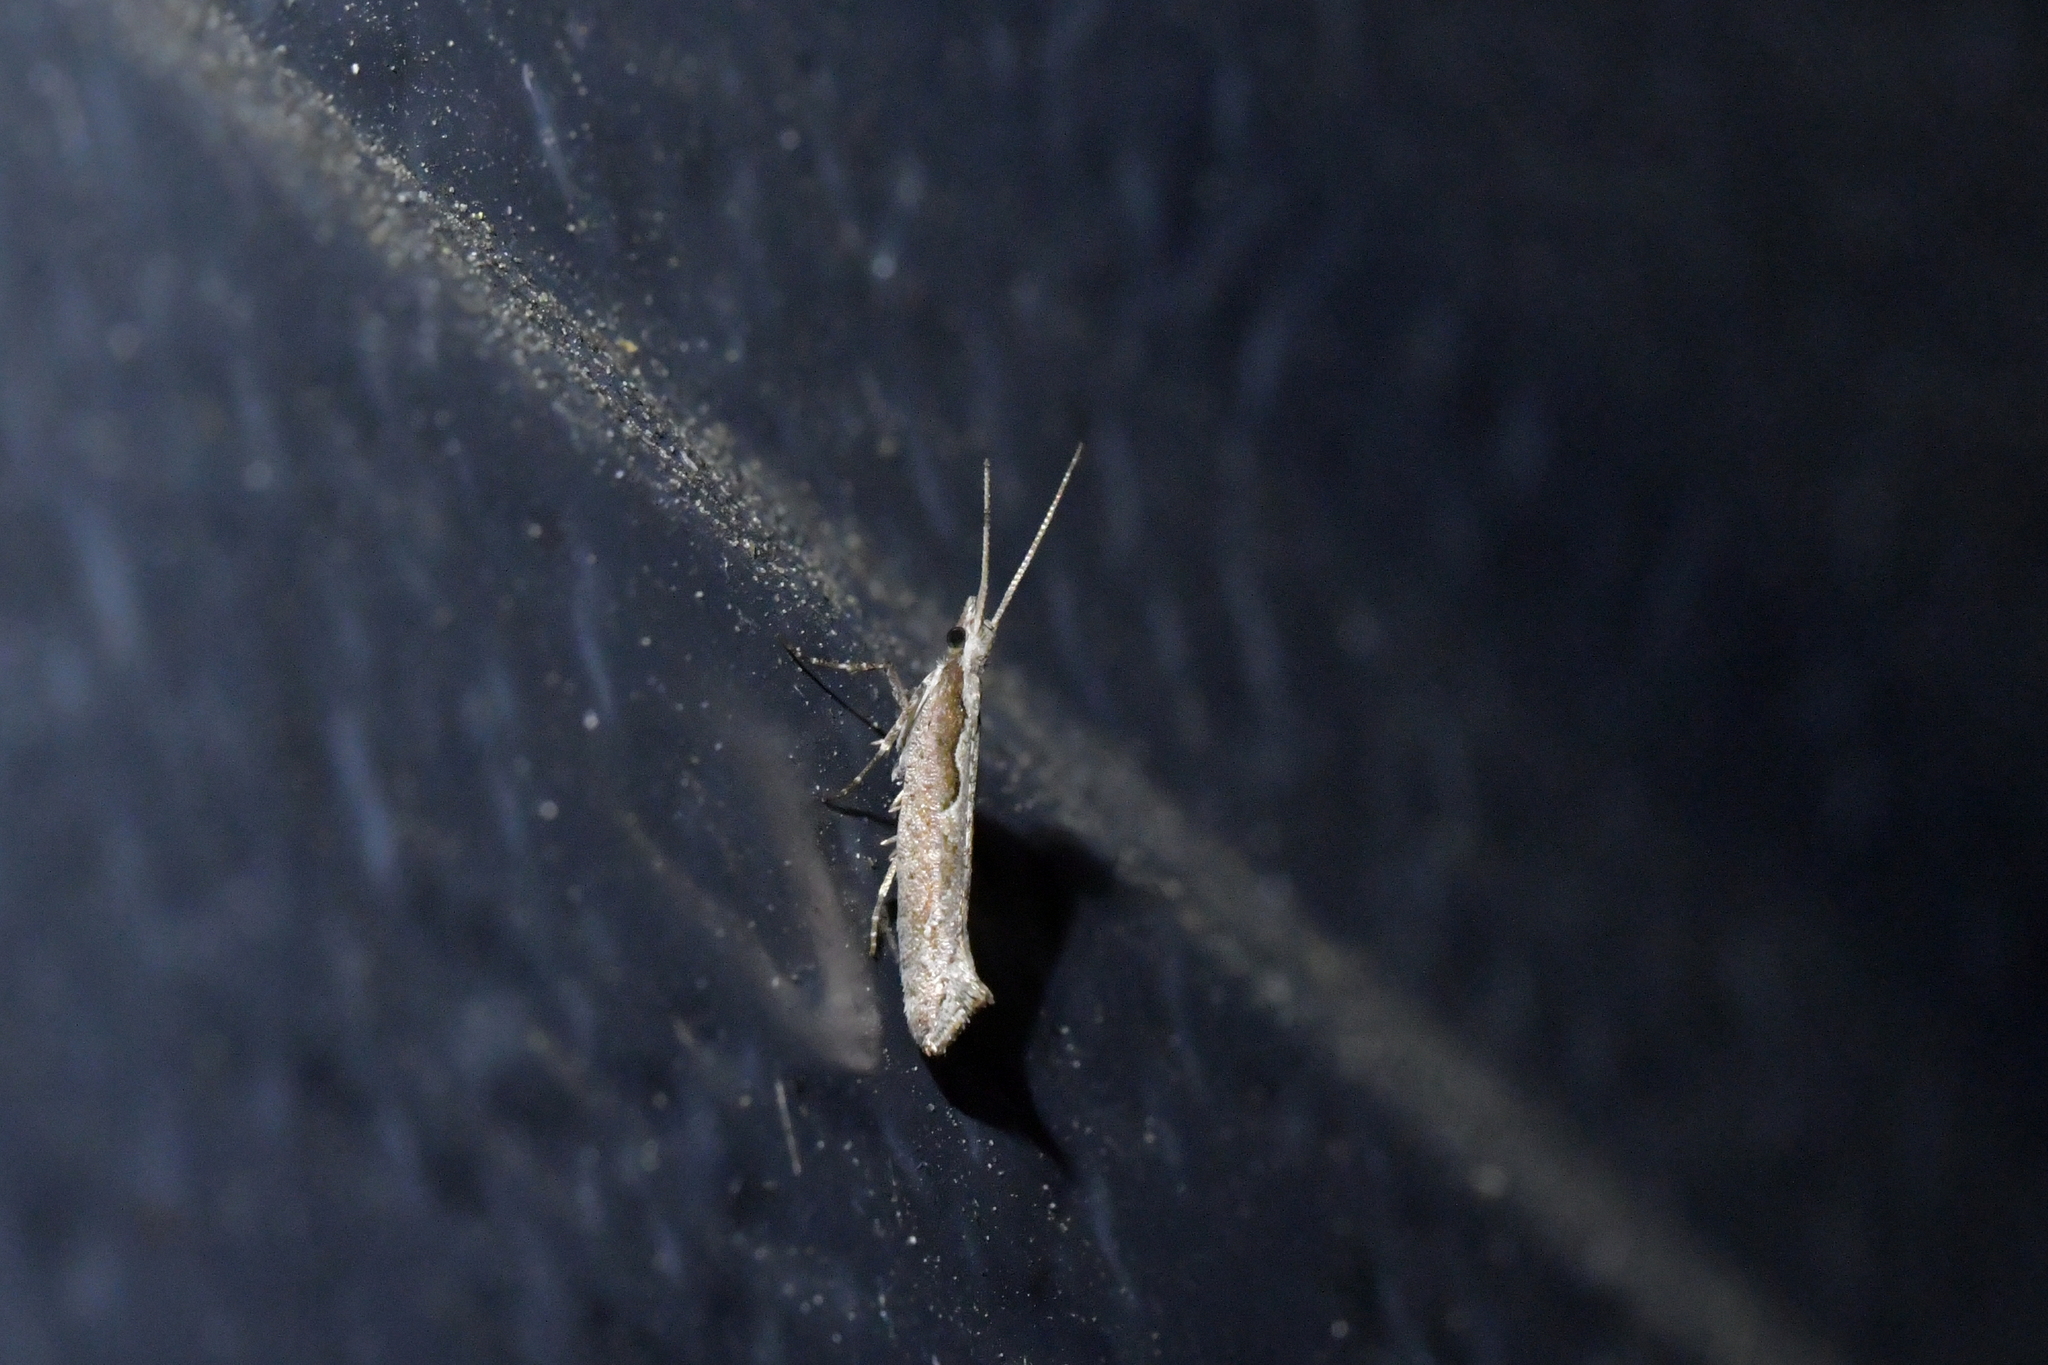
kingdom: Animalia
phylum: Arthropoda
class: Insecta
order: Lepidoptera
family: Plutellidae
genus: Plutella
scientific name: Plutella xylostella
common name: Diamond-back moth
